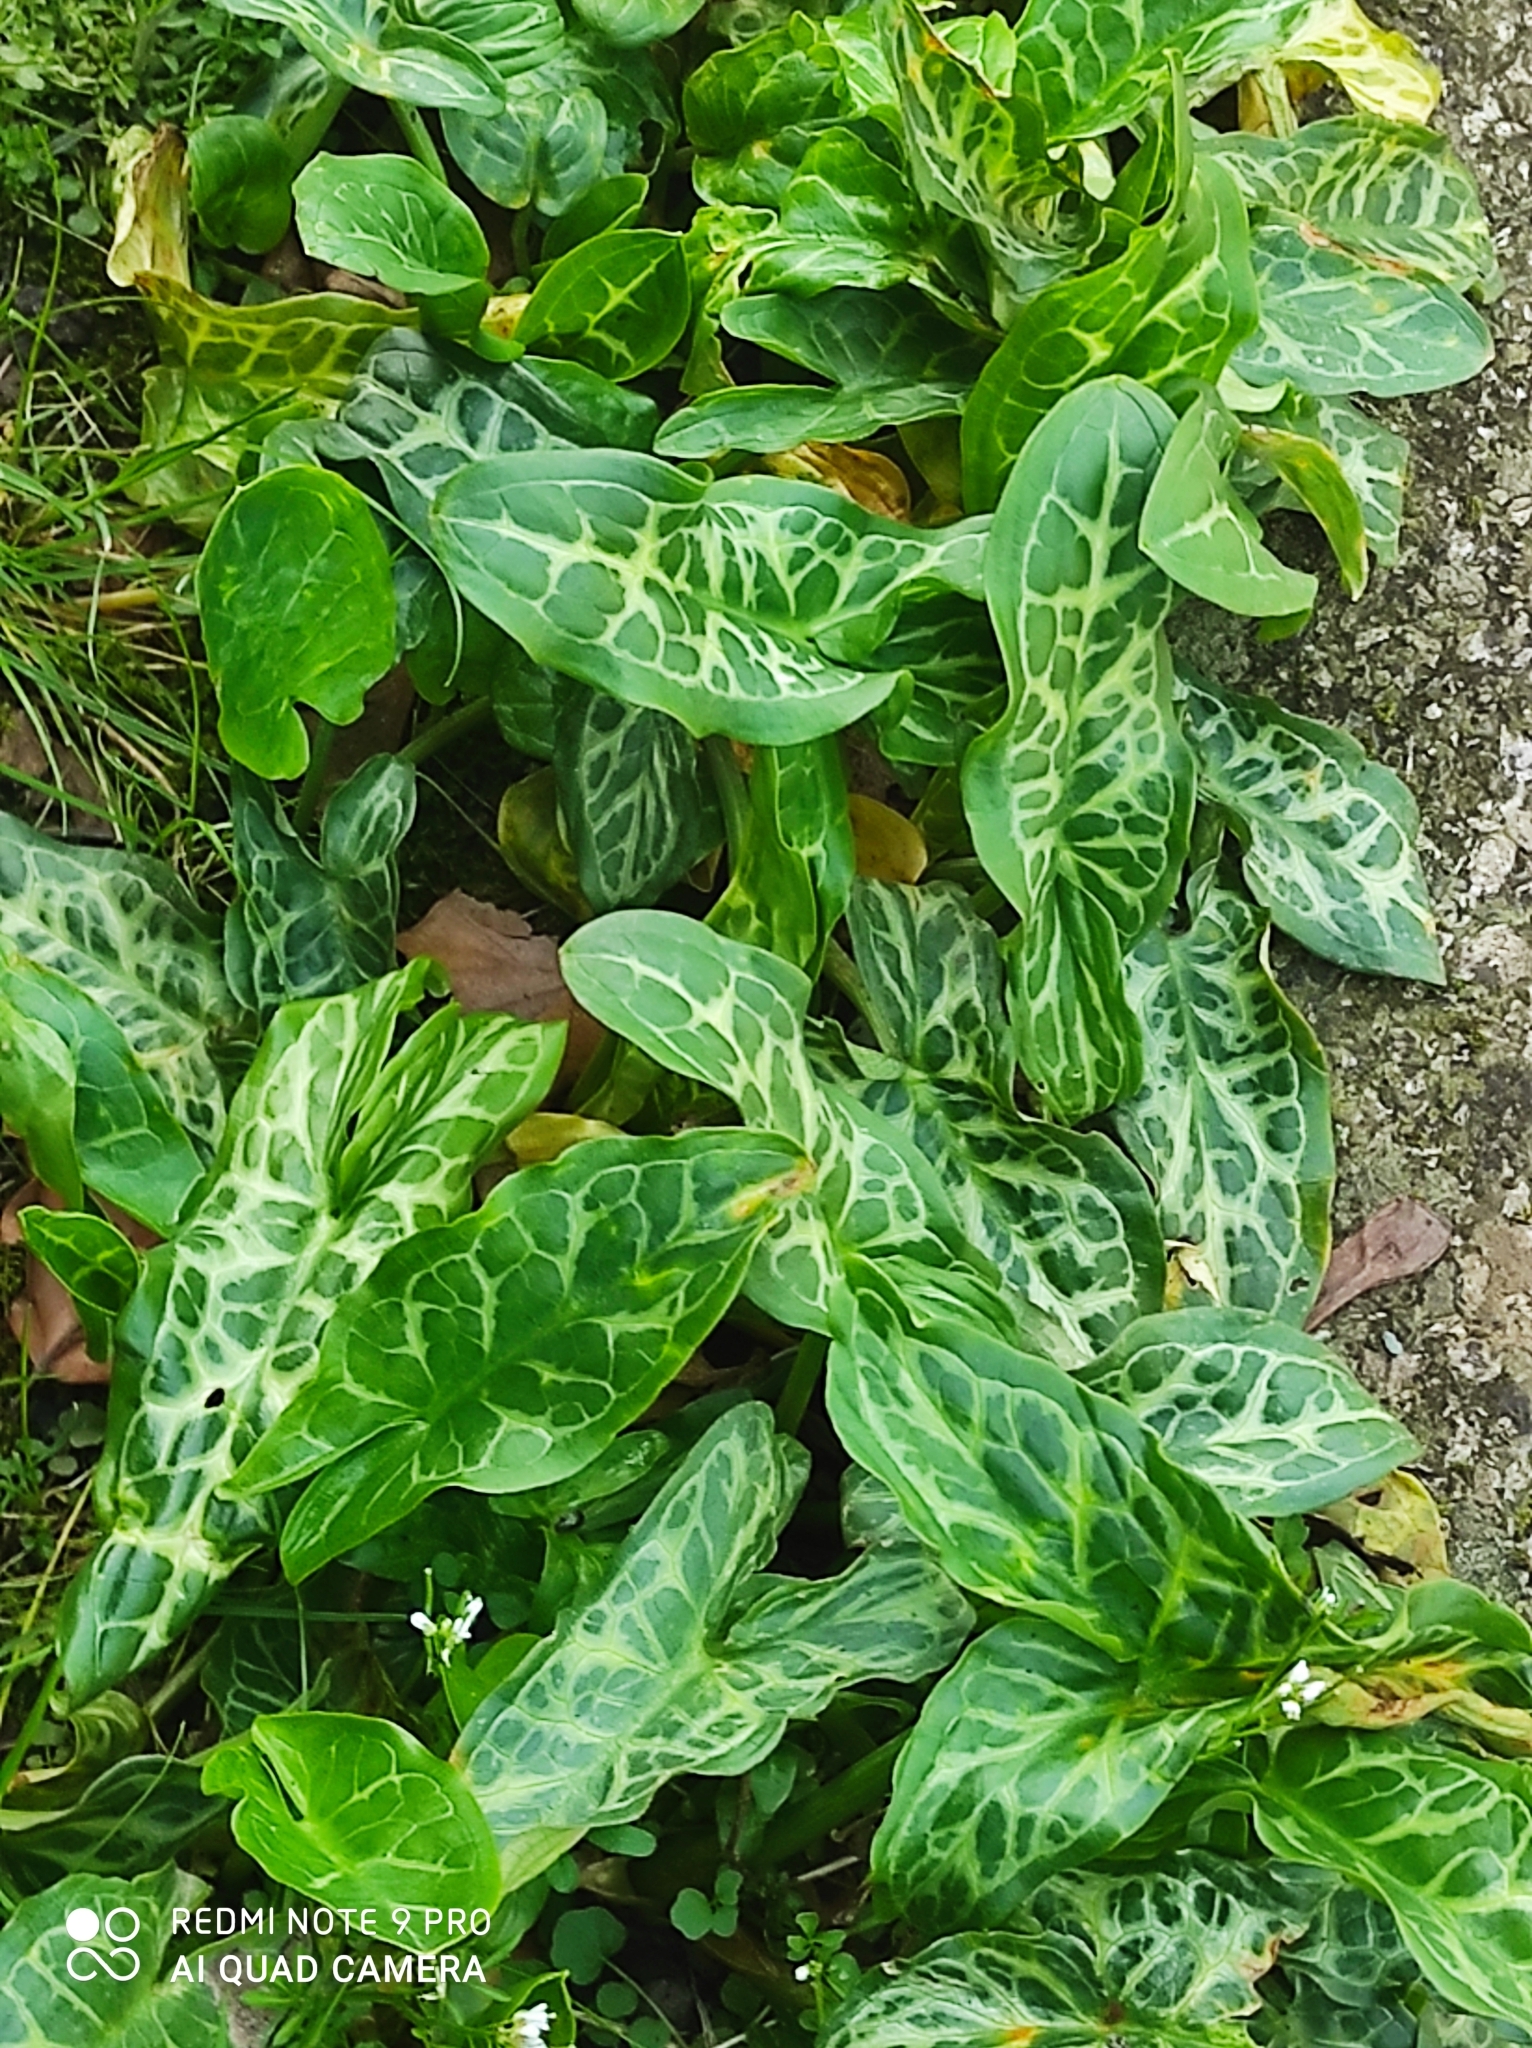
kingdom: Plantae
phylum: Tracheophyta
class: Liliopsida
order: Alismatales
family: Araceae
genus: Arum
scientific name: Arum italicum
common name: Italian lords-and-ladies
